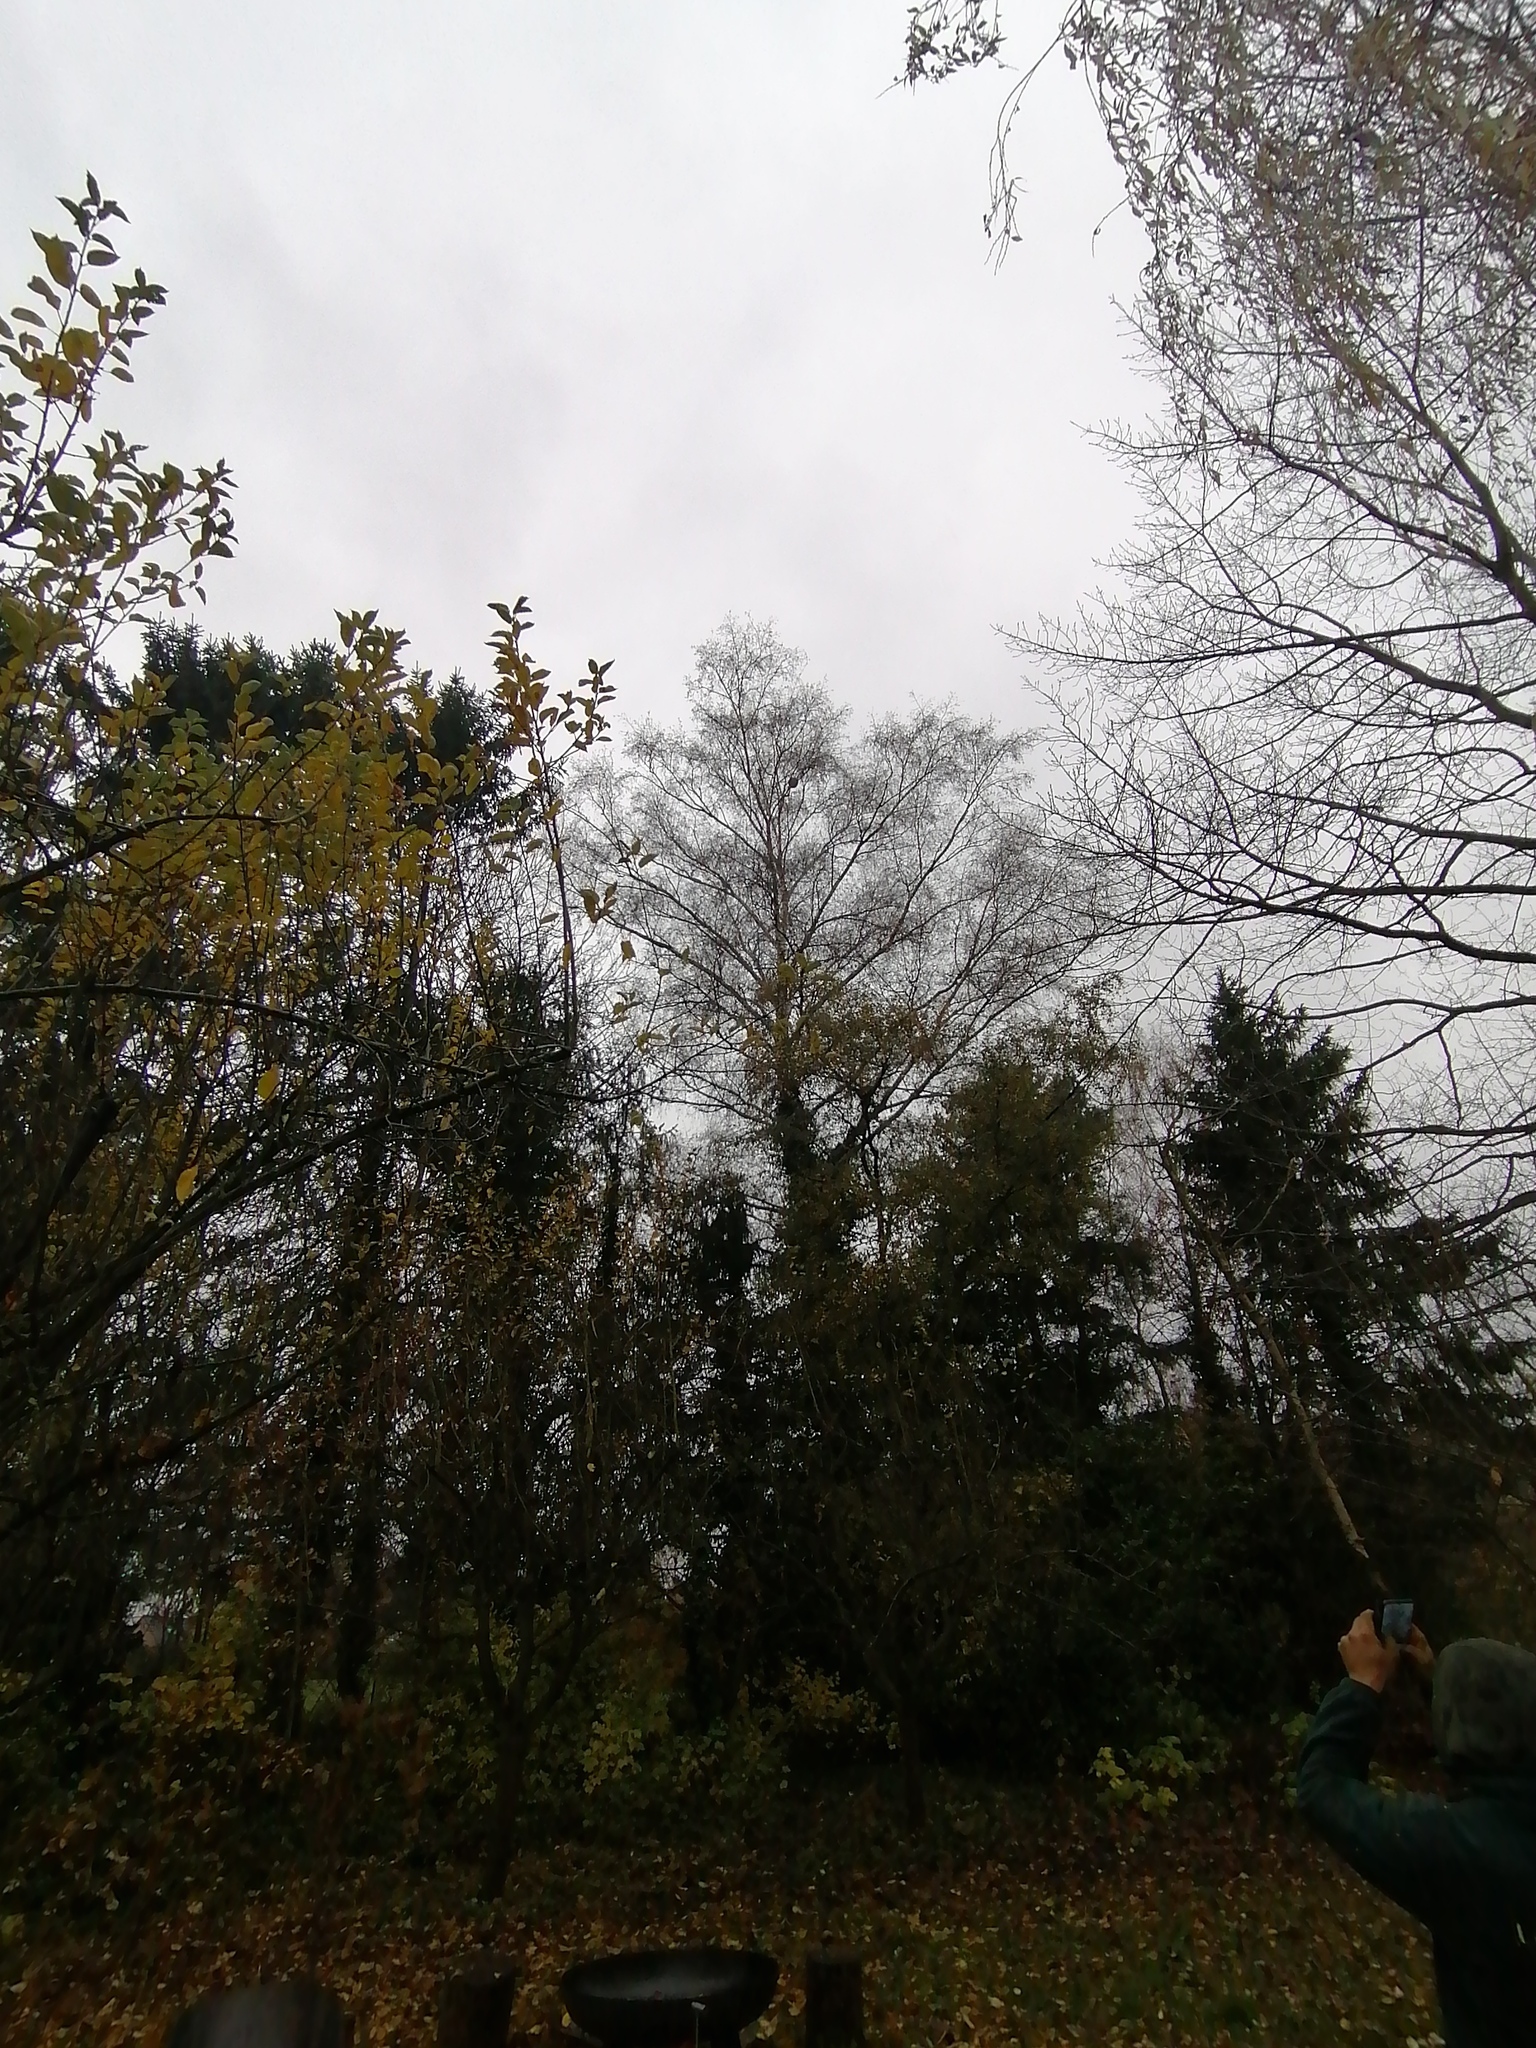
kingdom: Animalia
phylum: Arthropoda
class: Insecta
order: Hymenoptera
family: Vespidae
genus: Vespa
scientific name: Vespa velutina
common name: Asian hornet
